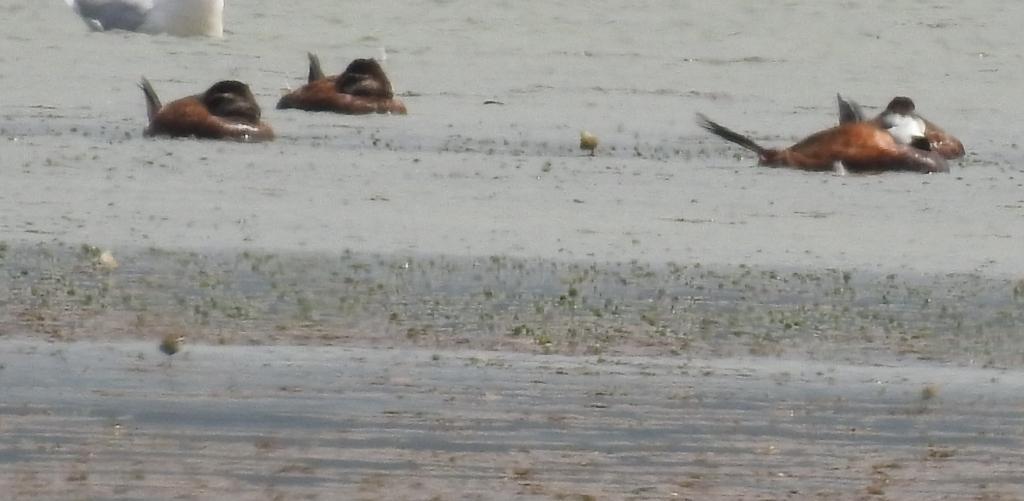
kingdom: Animalia
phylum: Chordata
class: Aves
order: Anseriformes
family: Anatidae
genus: Oxyura
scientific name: Oxyura leucocephala
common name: White-headed duck
